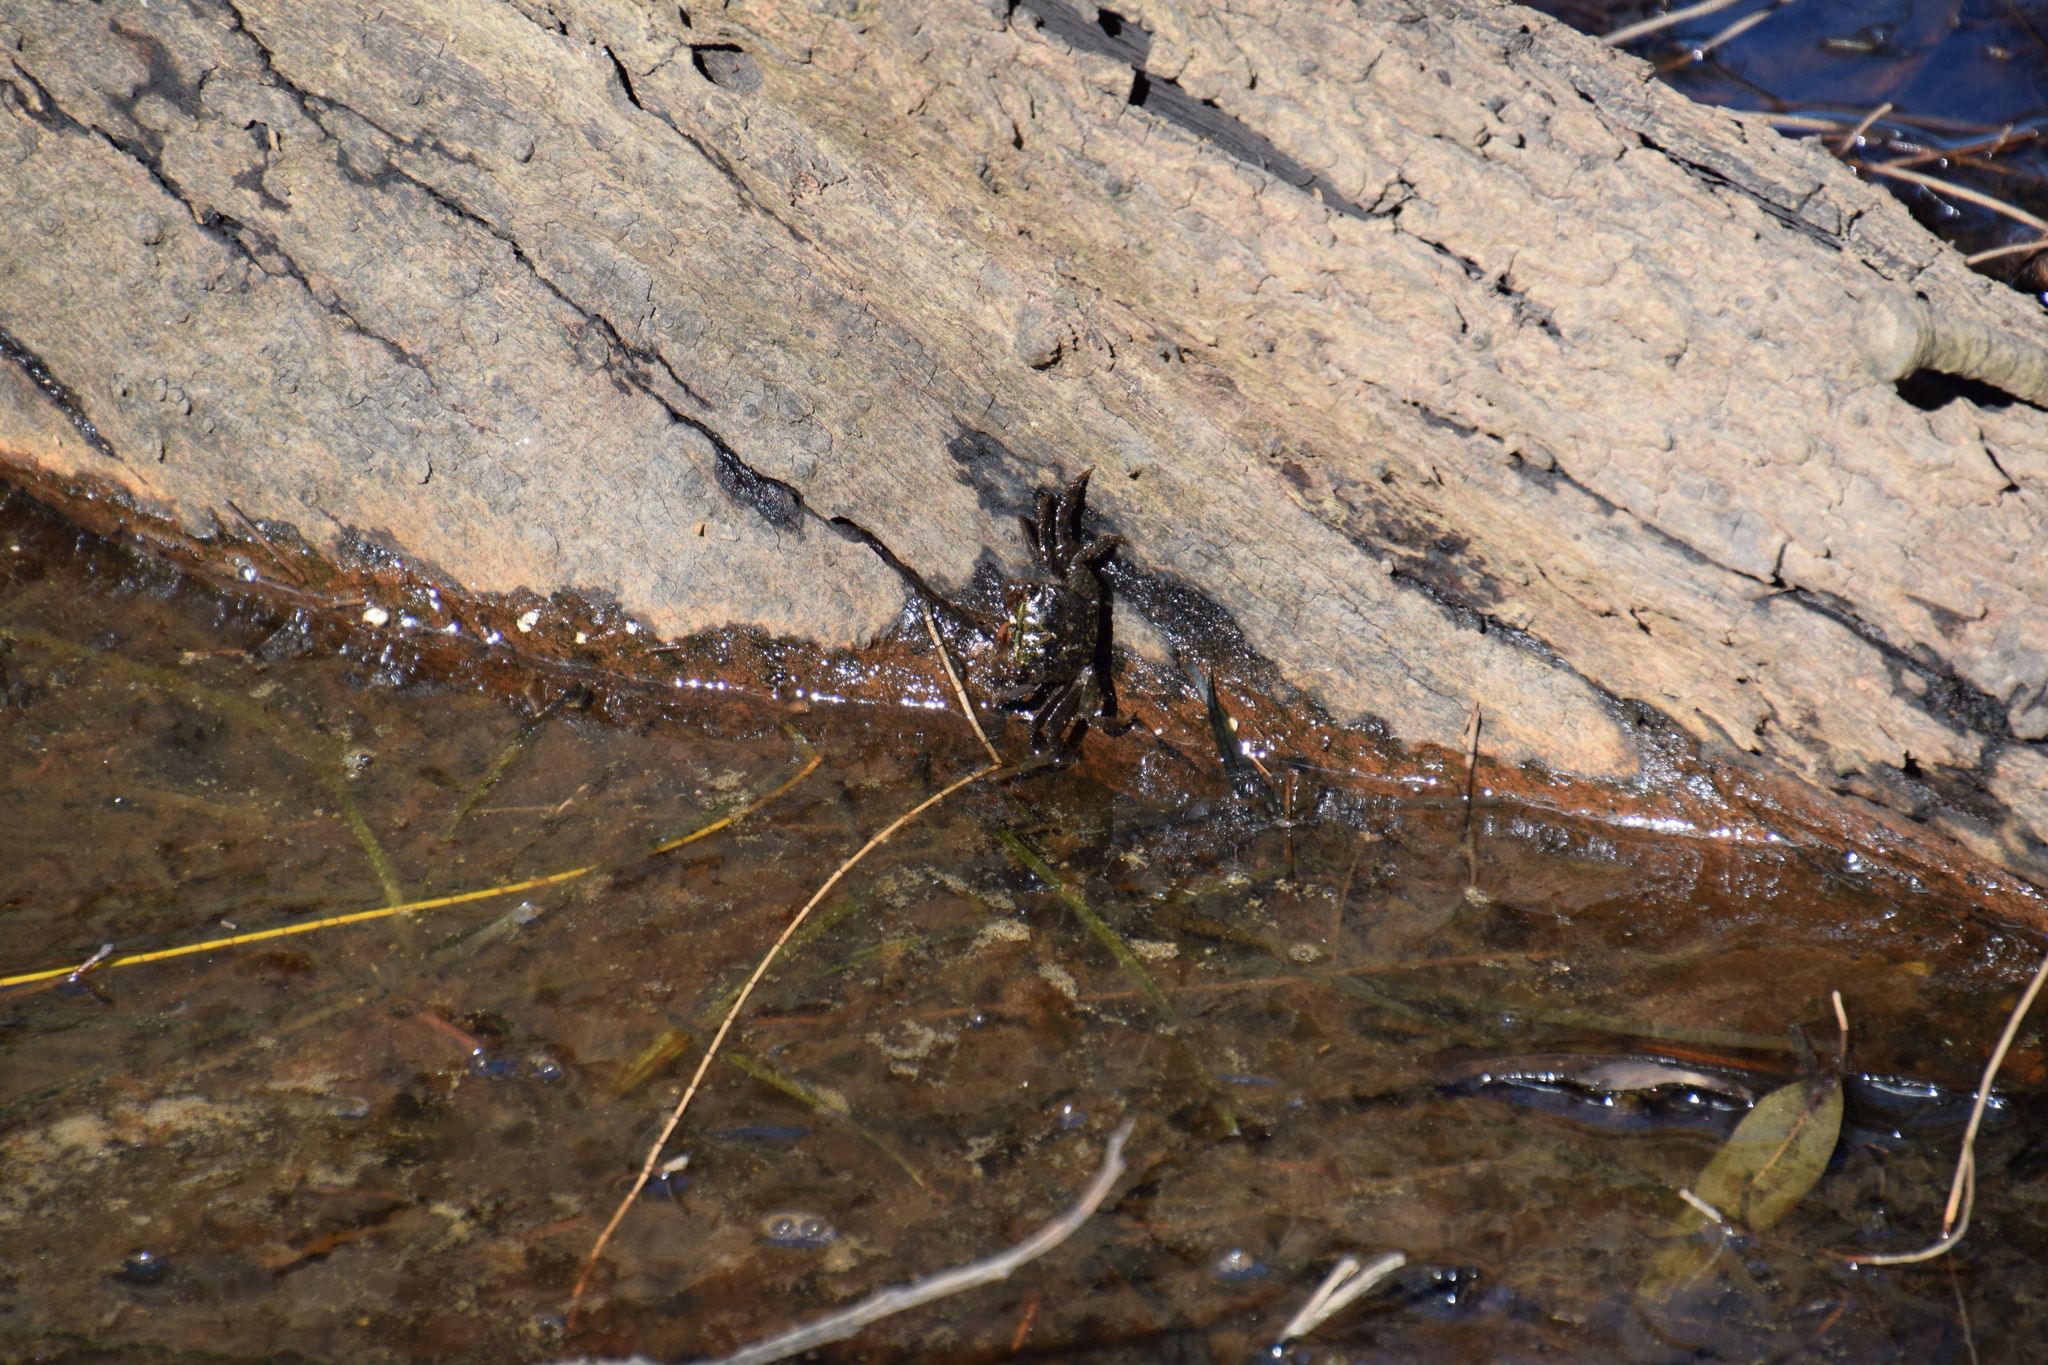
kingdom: Animalia
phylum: Arthropoda
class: Malacostraca
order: Decapoda
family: Sesarmidae
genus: Parasesarma
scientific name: Parasesarma erythodactylum
